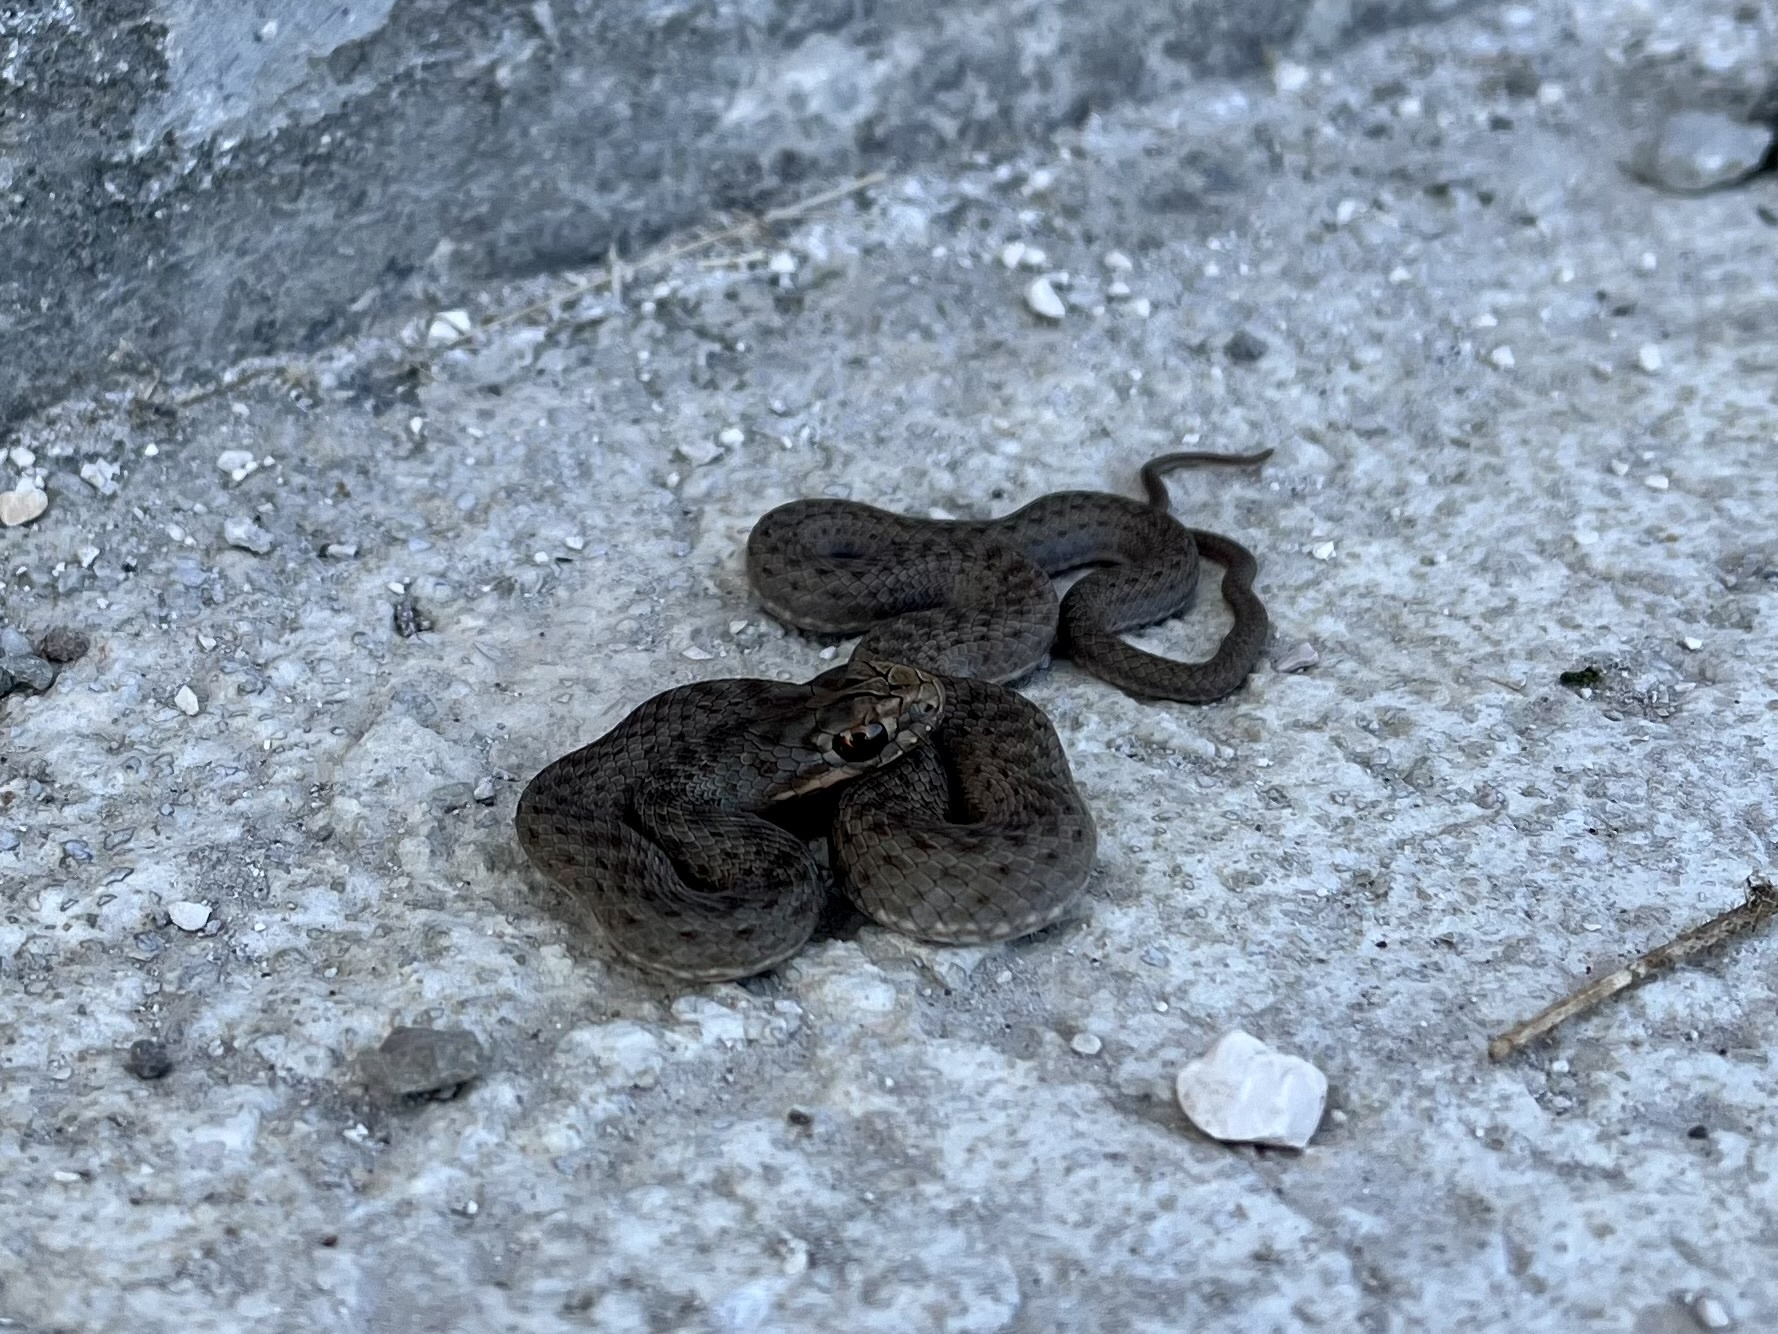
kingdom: Animalia
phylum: Chordata
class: Squamata
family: Psammophiidae
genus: Malpolon
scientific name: Malpolon insignitus
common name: Eastern montpellier snake
